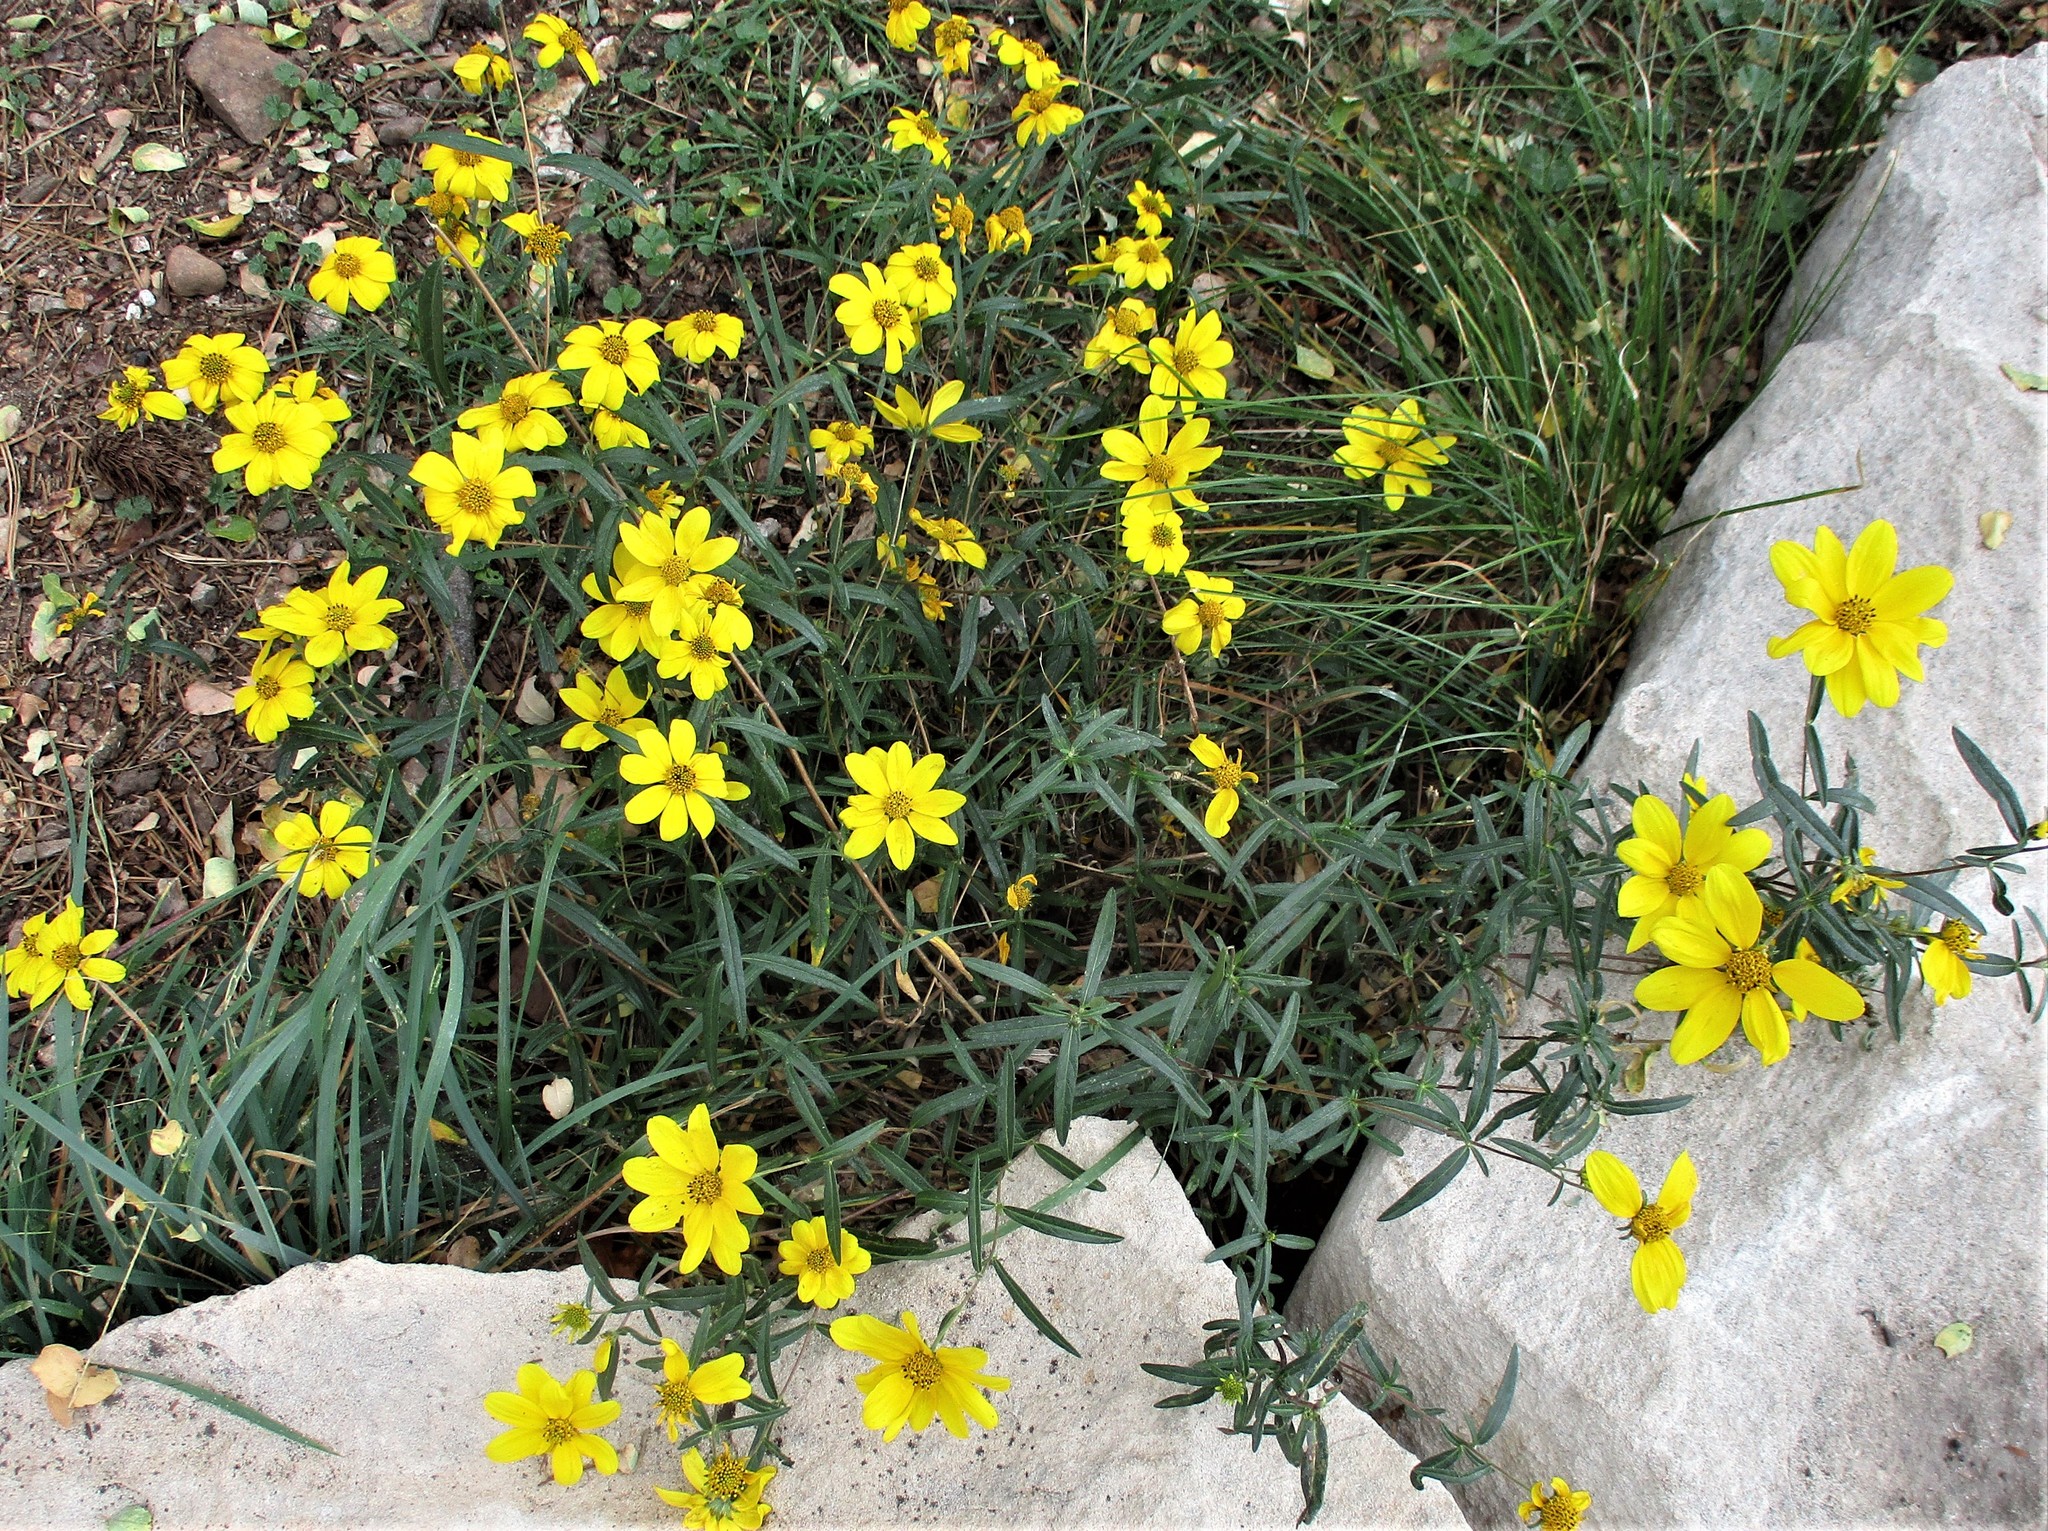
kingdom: Plantae
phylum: Tracheophyta
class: Magnoliopsida
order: Asterales
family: Asteraceae
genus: Heliomeris
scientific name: Heliomeris multiflora
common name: Showy goldeneye
